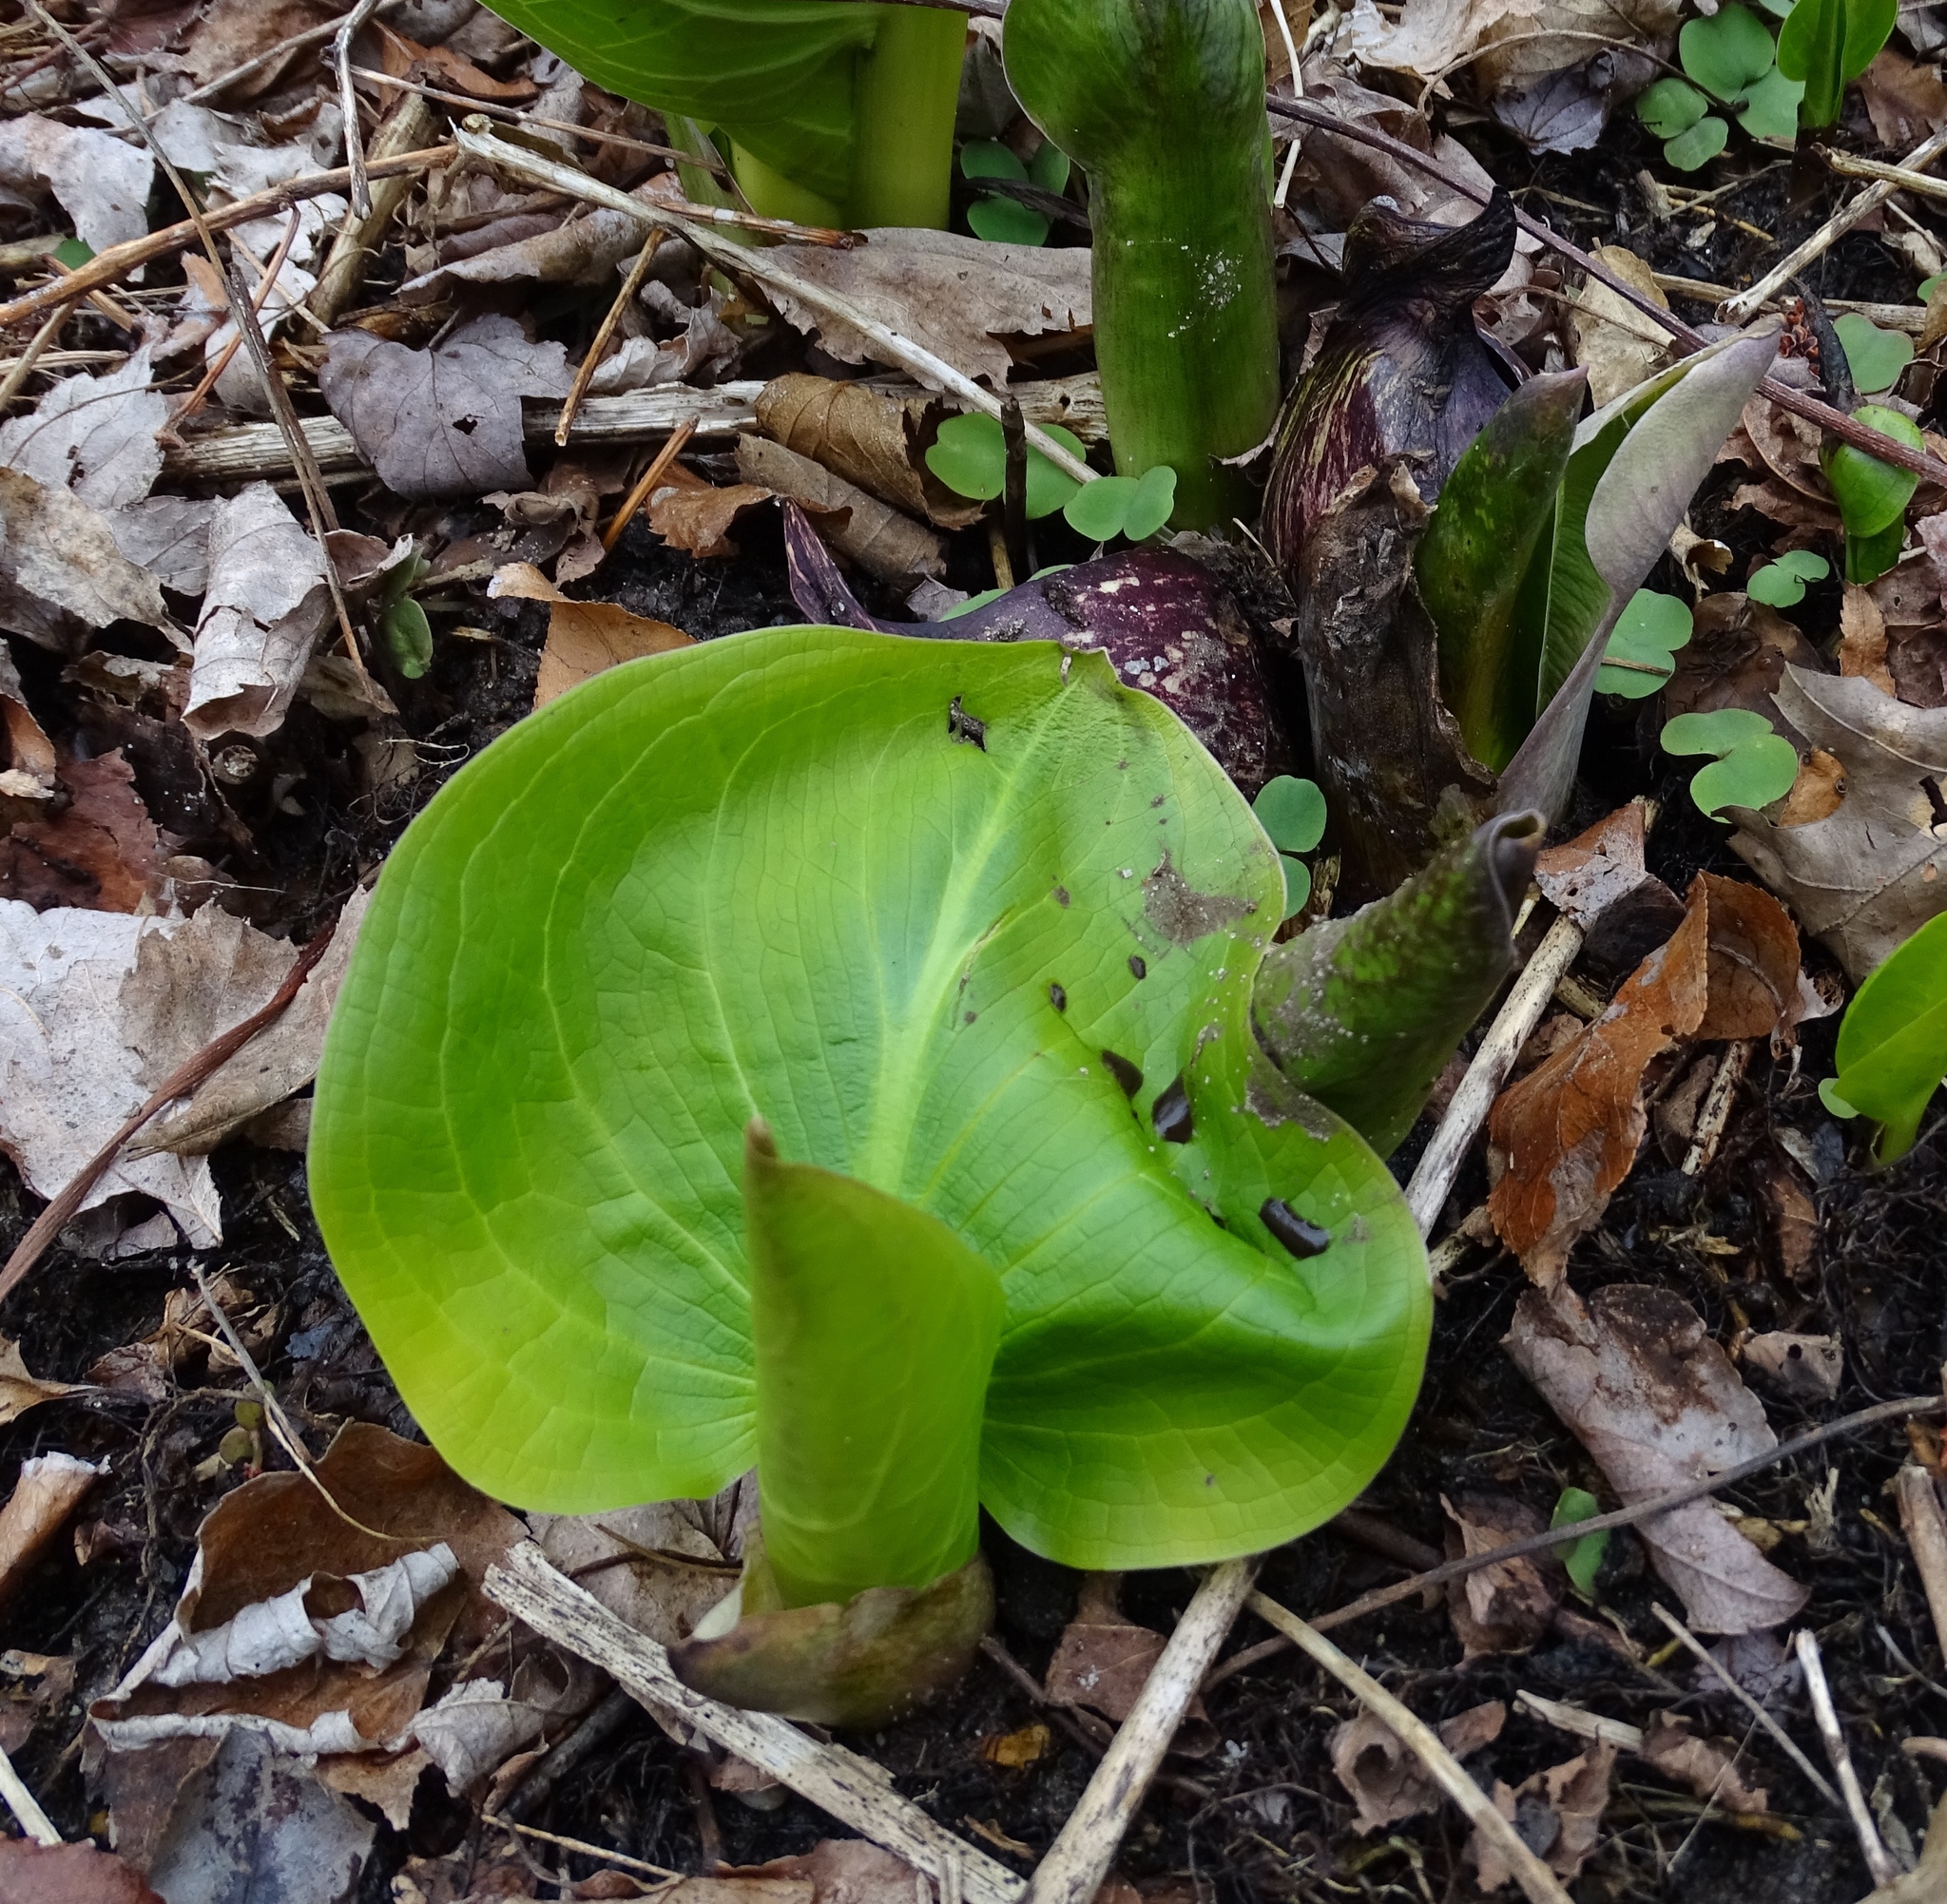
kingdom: Plantae
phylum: Tracheophyta
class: Liliopsida
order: Alismatales
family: Araceae
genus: Symplocarpus
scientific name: Symplocarpus foetidus
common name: Eastern skunk cabbage
